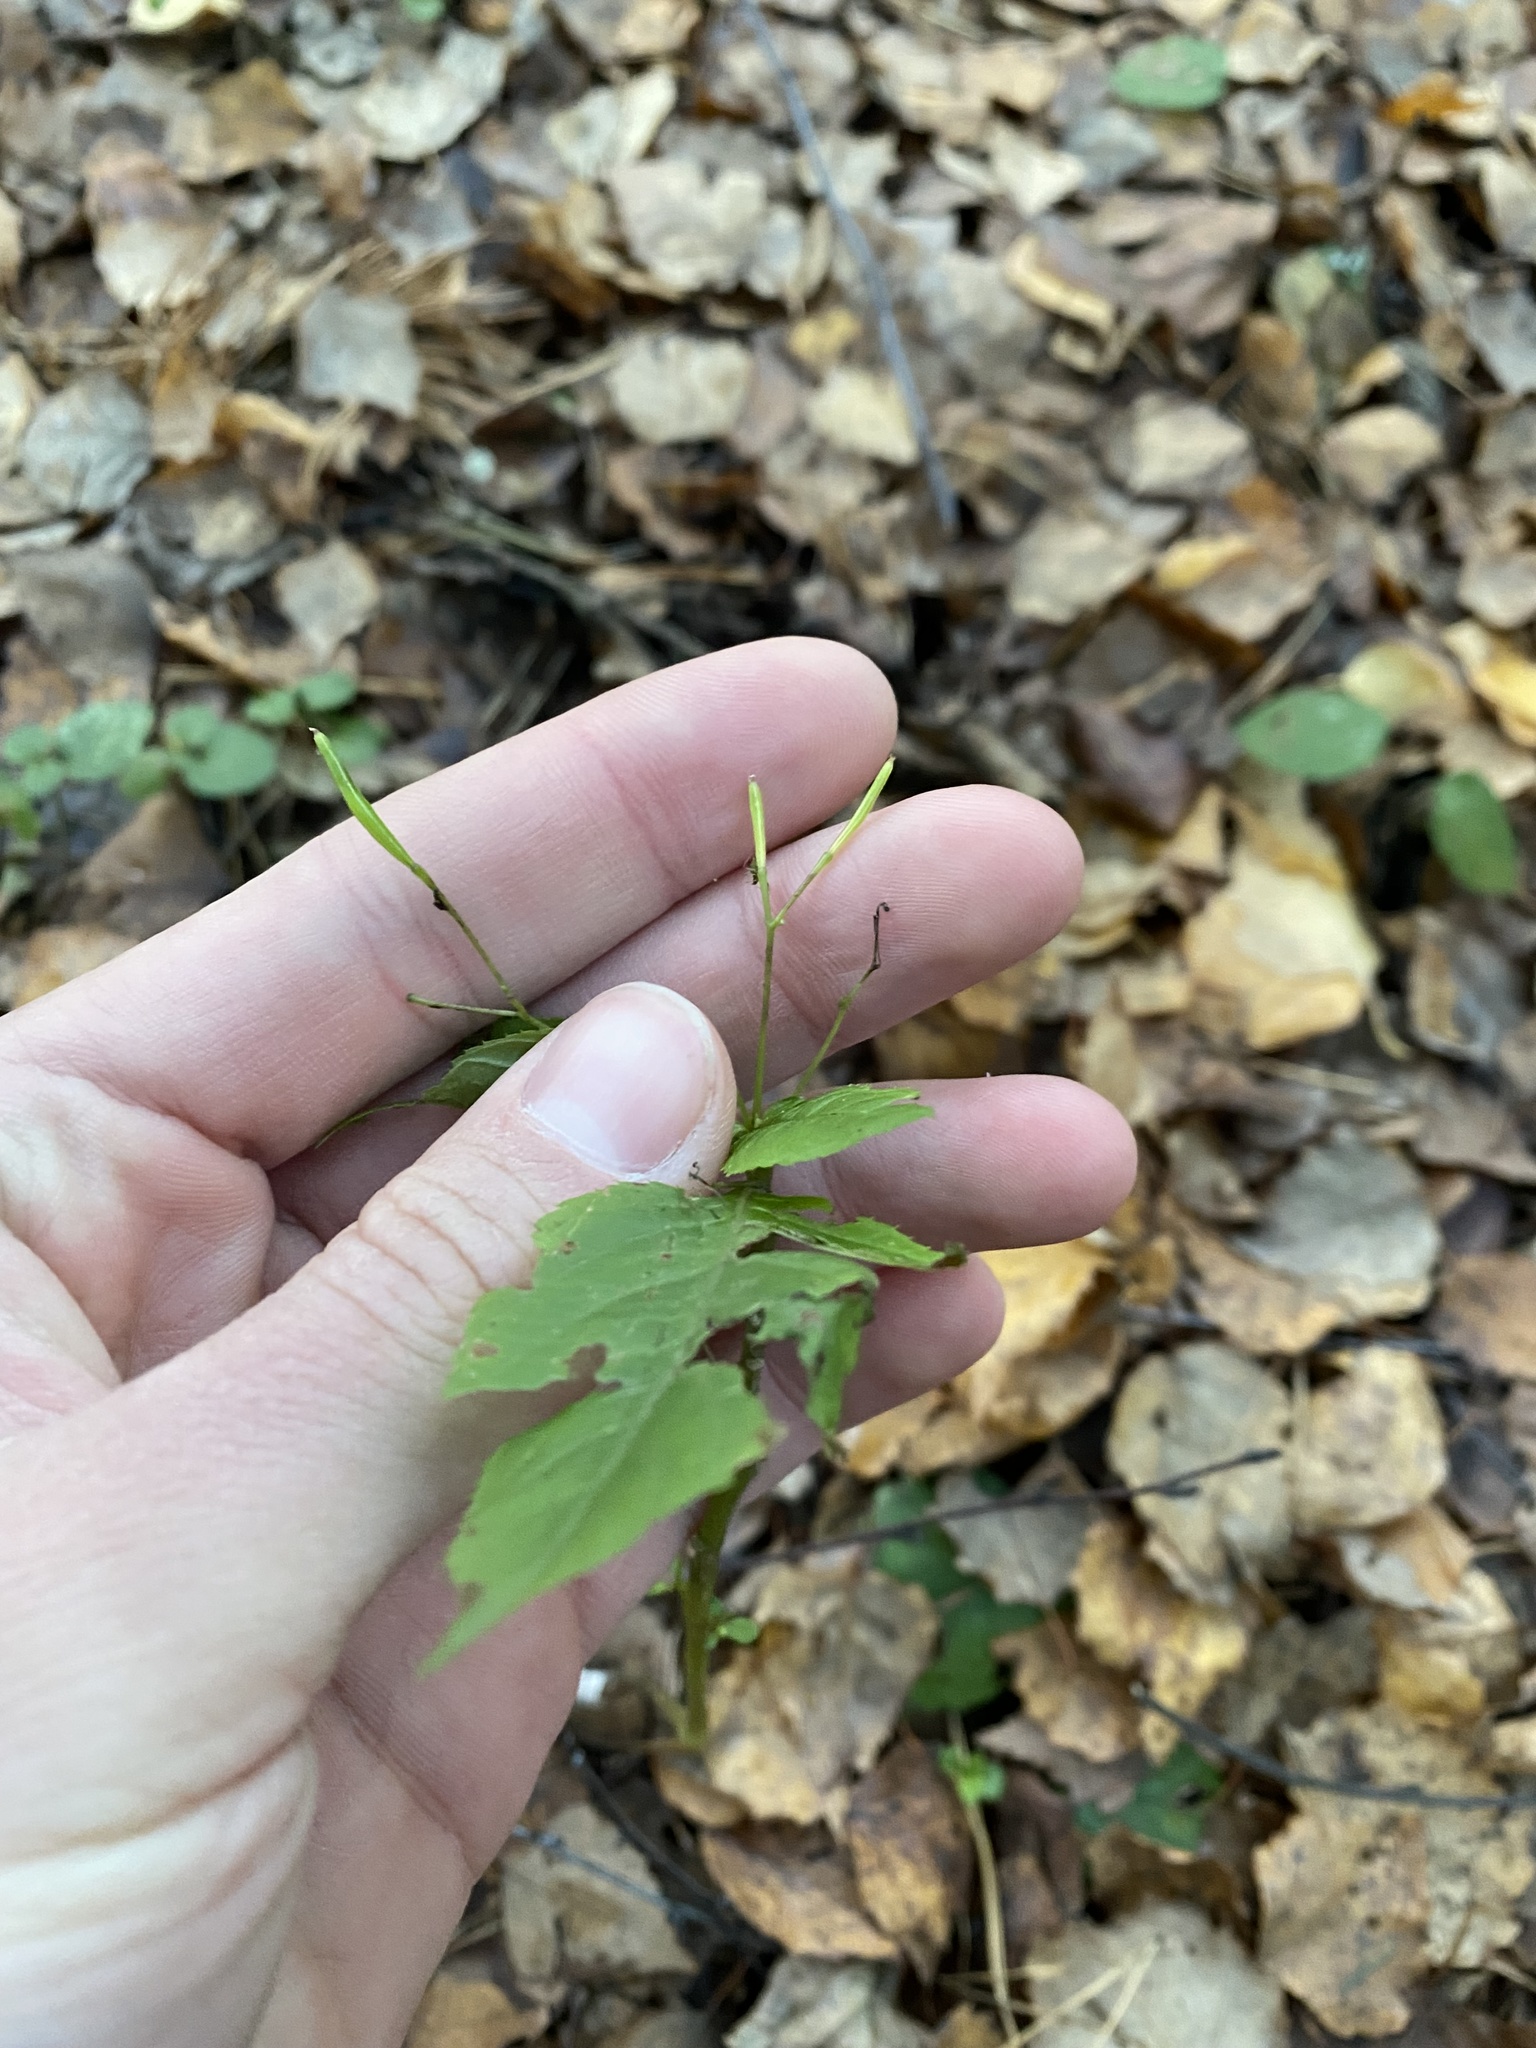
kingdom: Plantae
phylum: Tracheophyta
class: Magnoliopsida
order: Ericales
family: Balsaminaceae
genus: Impatiens
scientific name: Impatiens parviflora
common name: Small balsam
